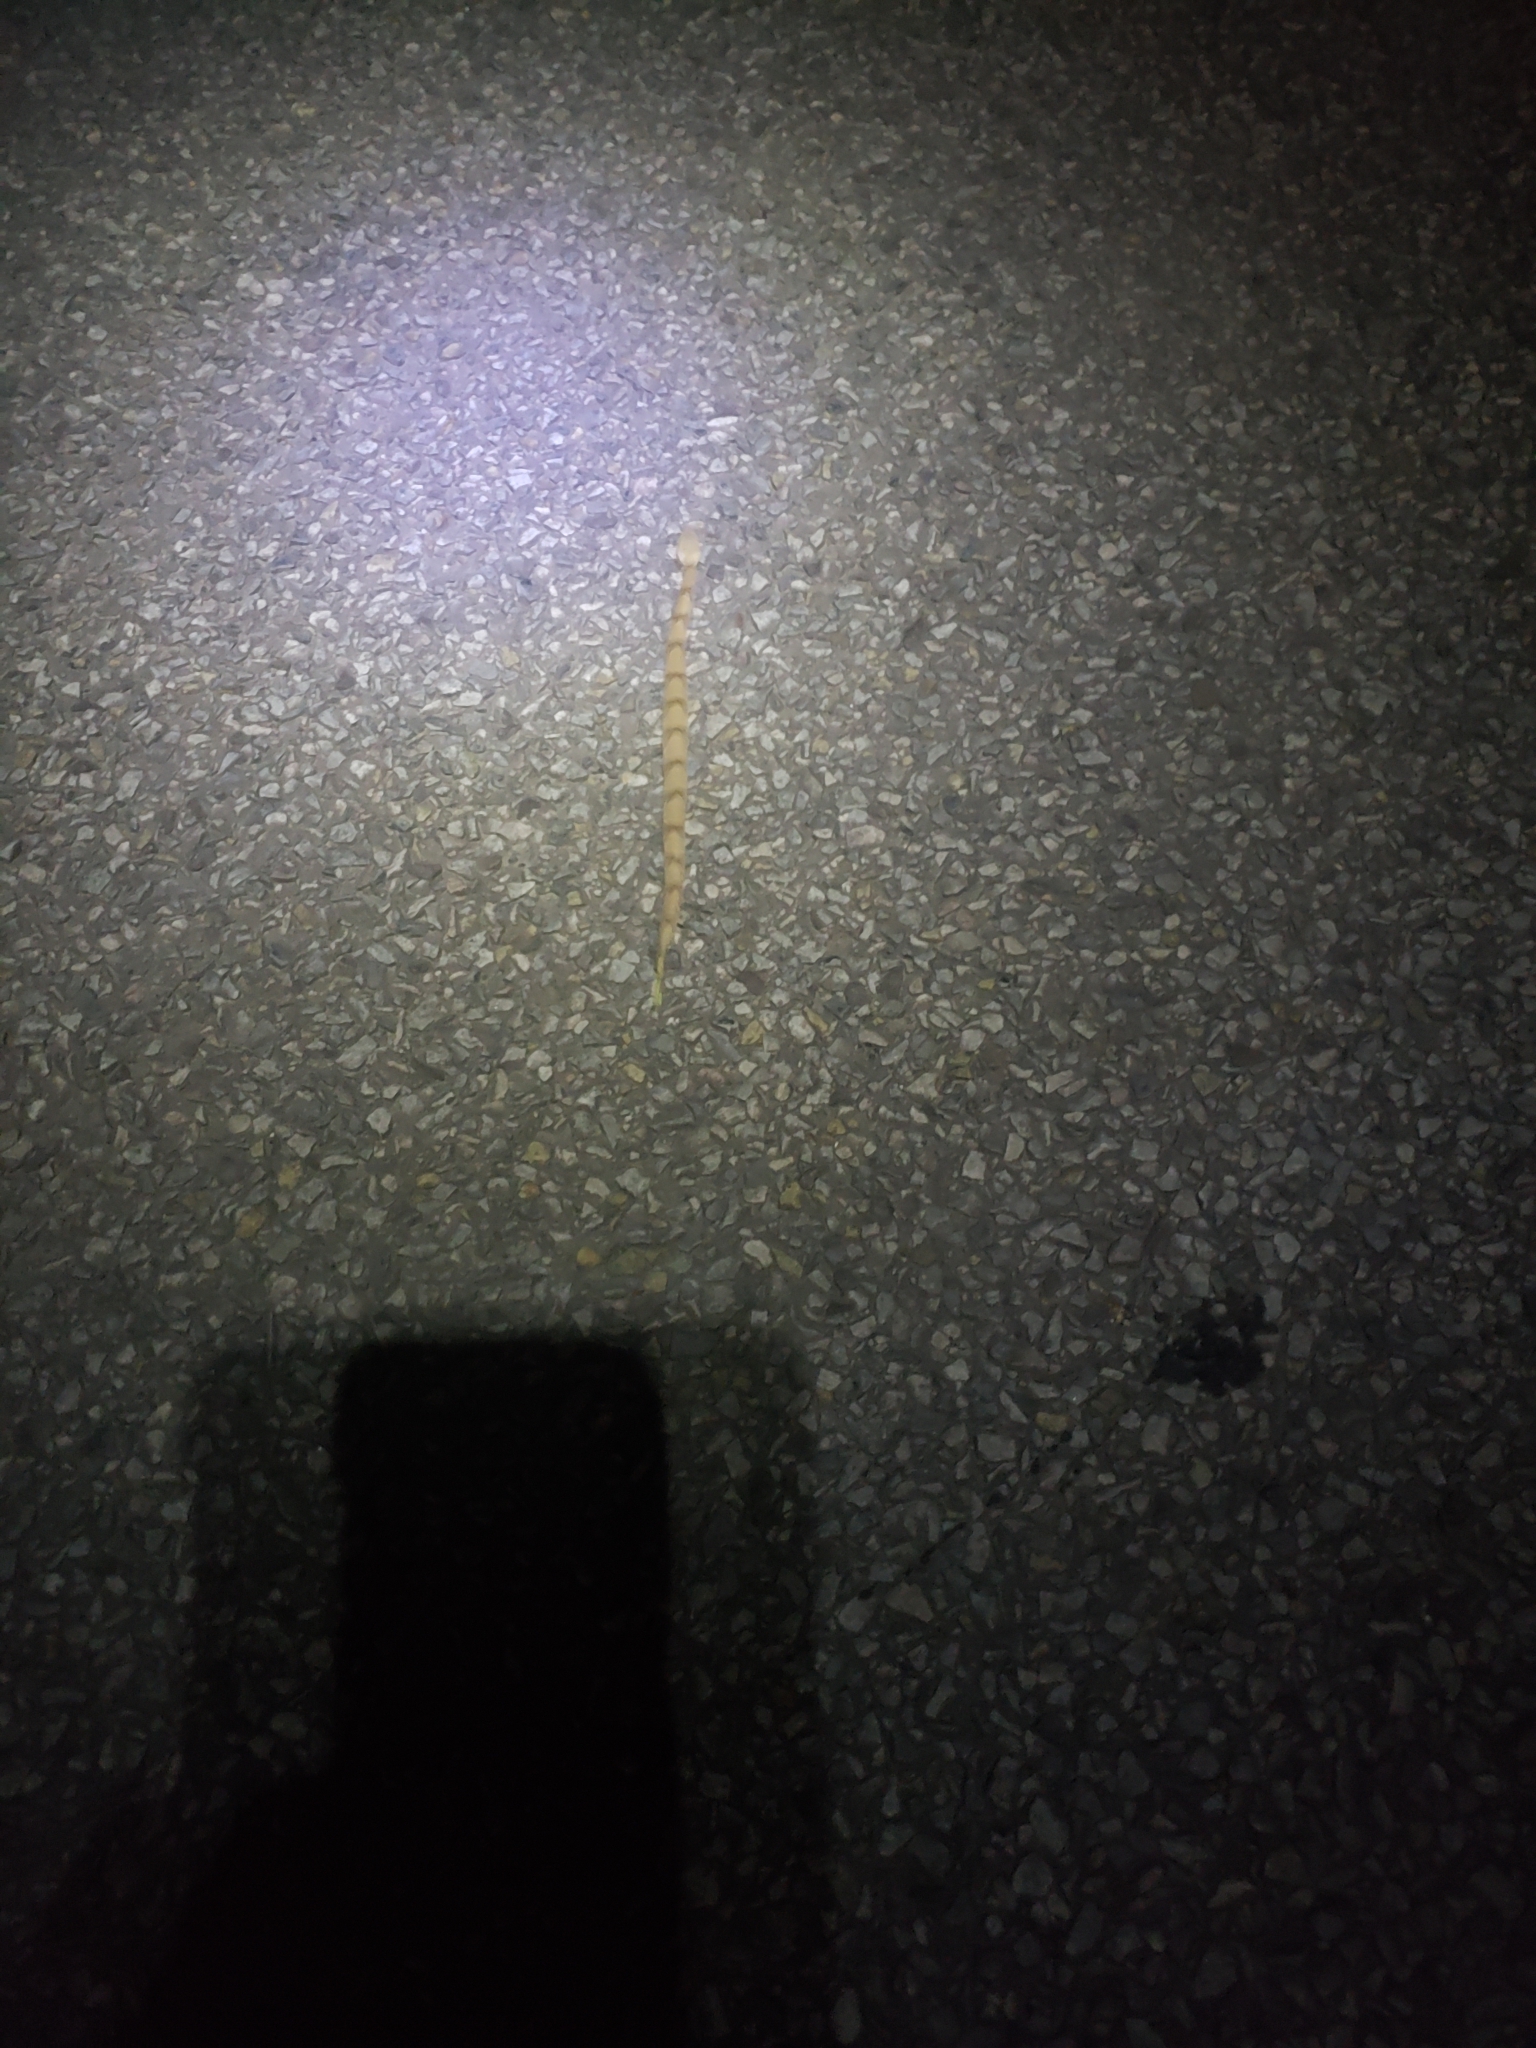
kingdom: Animalia
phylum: Chordata
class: Squamata
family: Viperidae
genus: Agkistrodon
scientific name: Agkistrodon contortrix
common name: Northern copperhead
